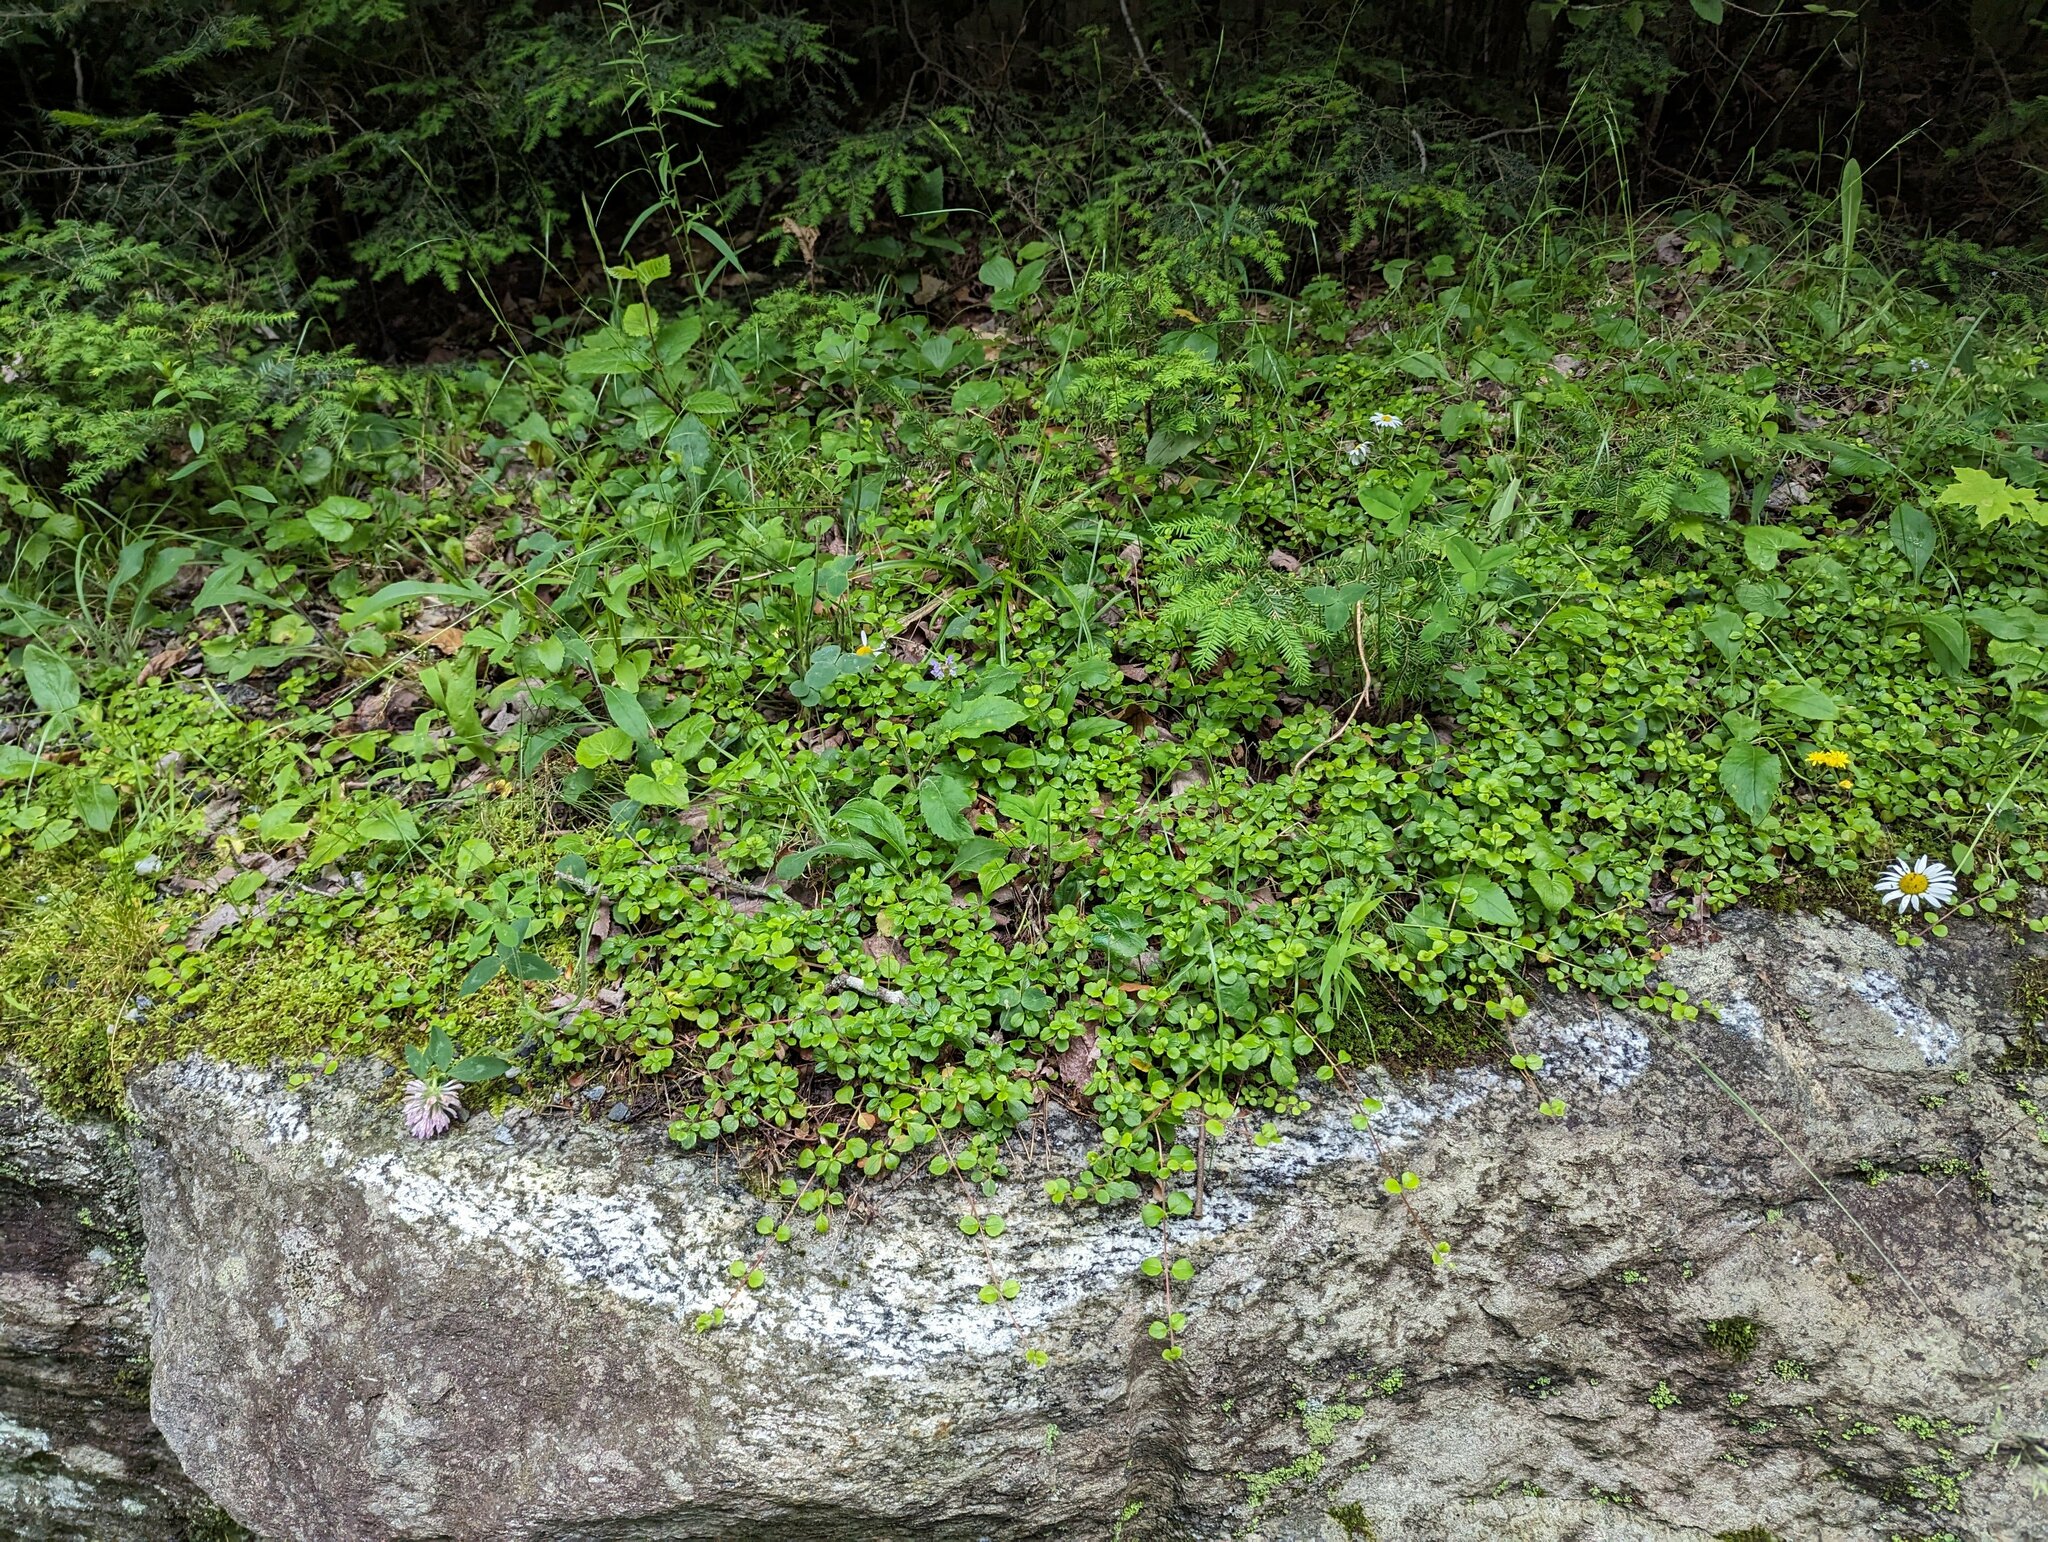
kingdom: Plantae
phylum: Tracheophyta
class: Magnoliopsida
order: Dipsacales
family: Caprifoliaceae
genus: Linnaea
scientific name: Linnaea borealis
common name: Twinflower
